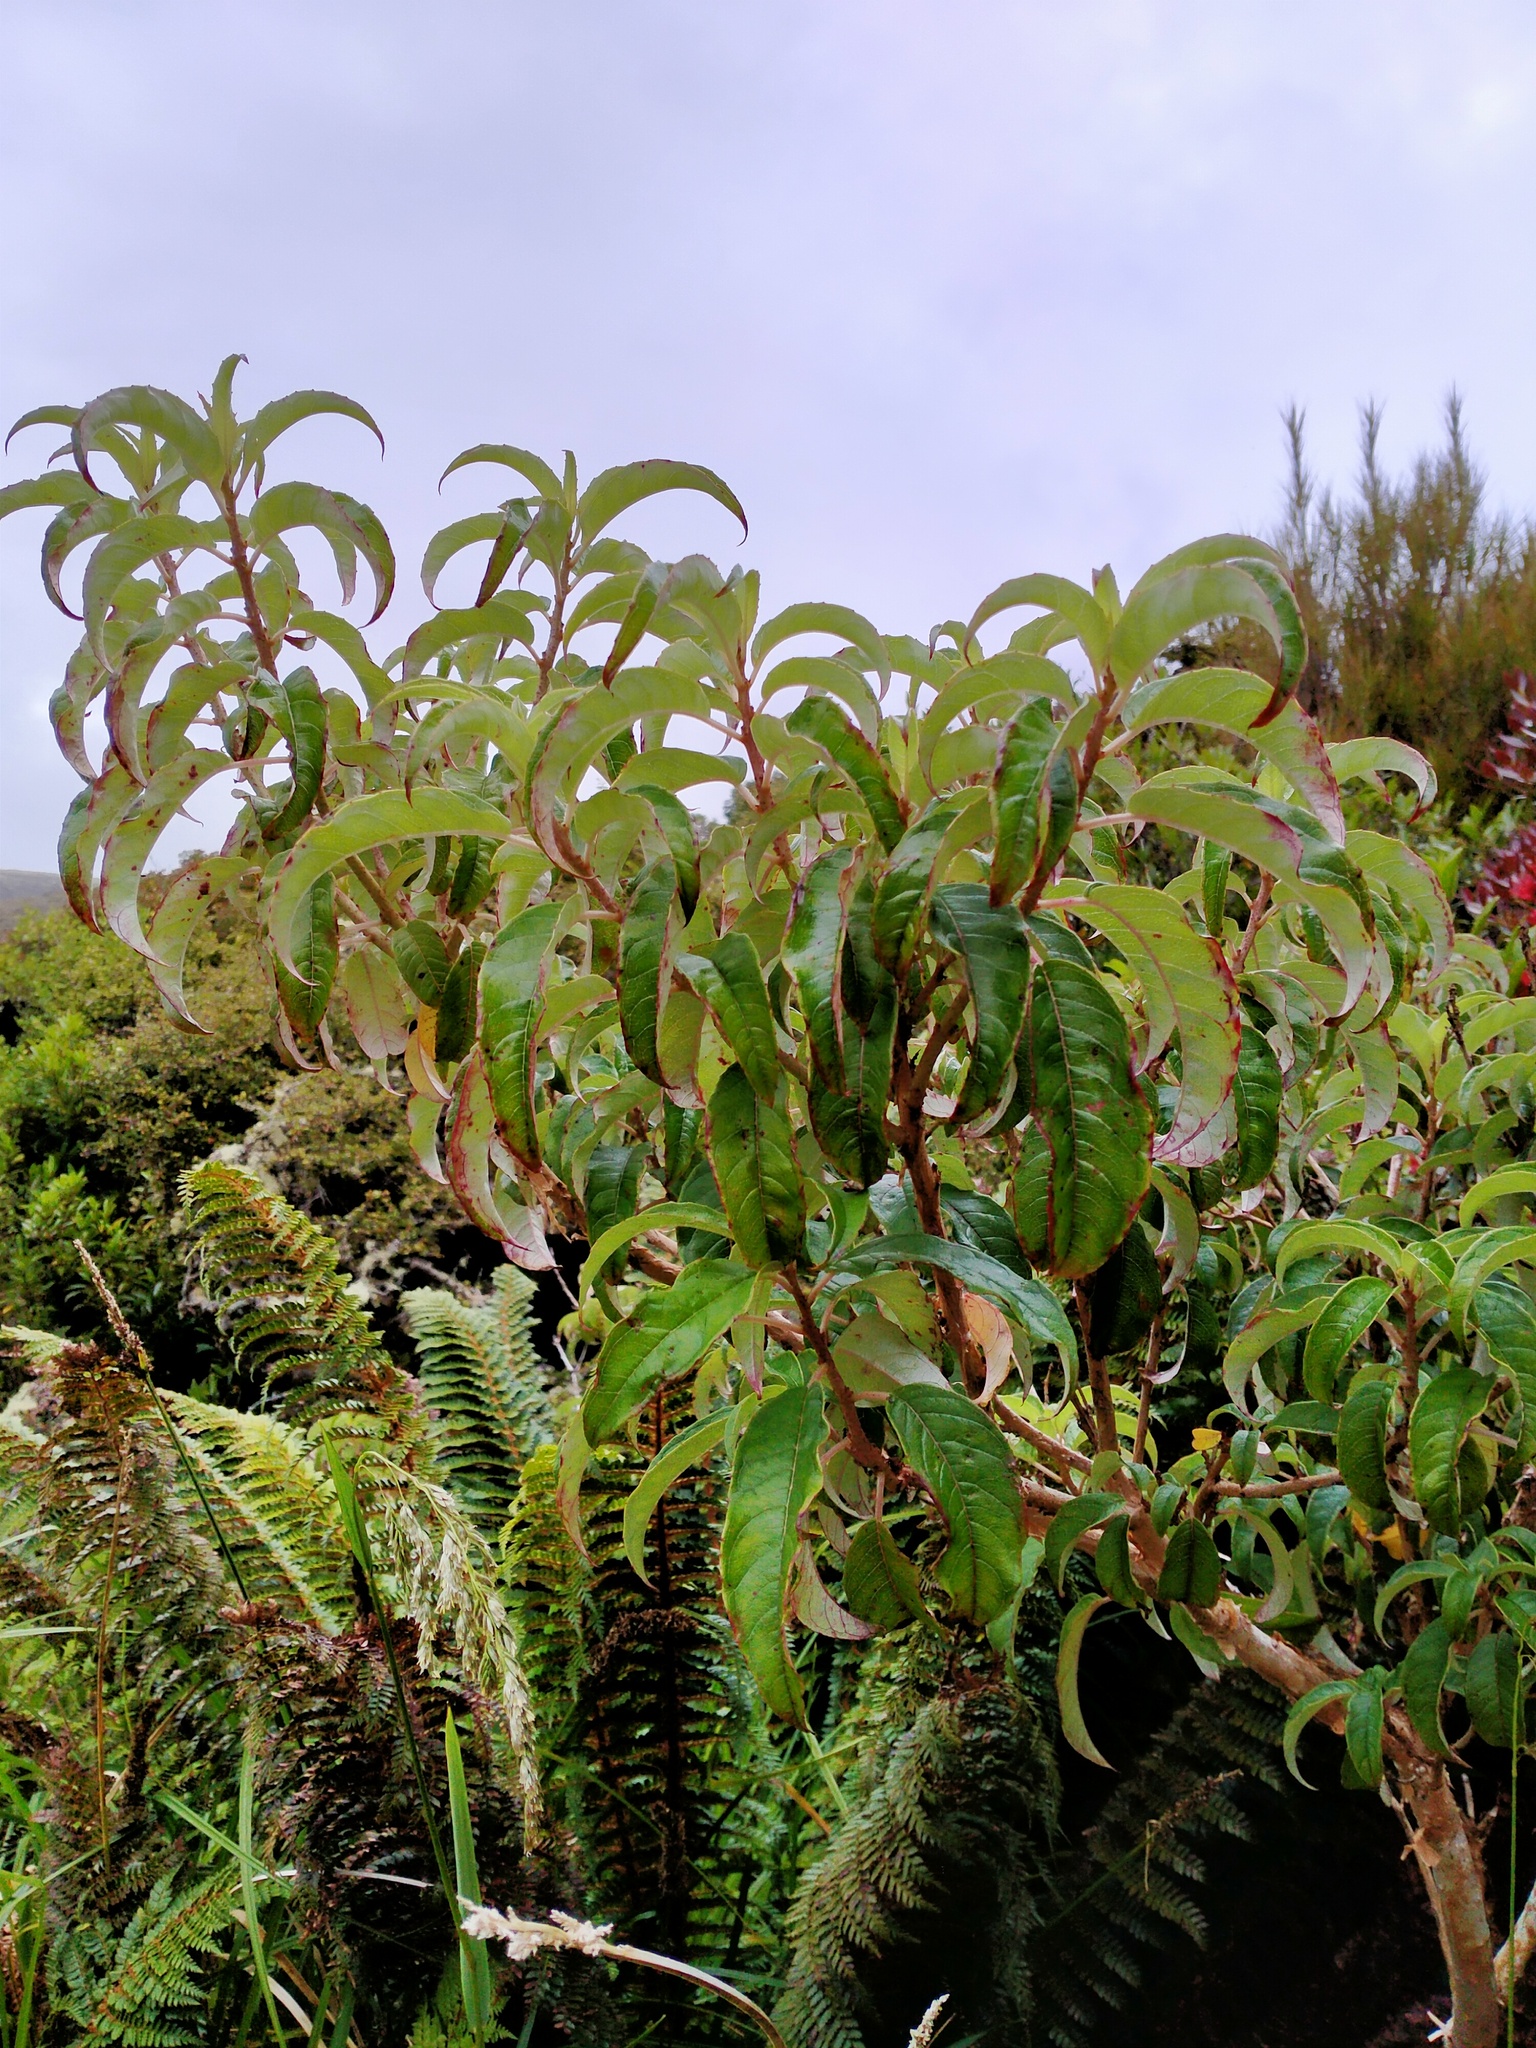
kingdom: Plantae
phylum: Tracheophyta
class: Magnoliopsida
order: Myrtales
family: Onagraceae
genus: Fuchsia
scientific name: Fuchsia excorticata
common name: Tree fuchsia
